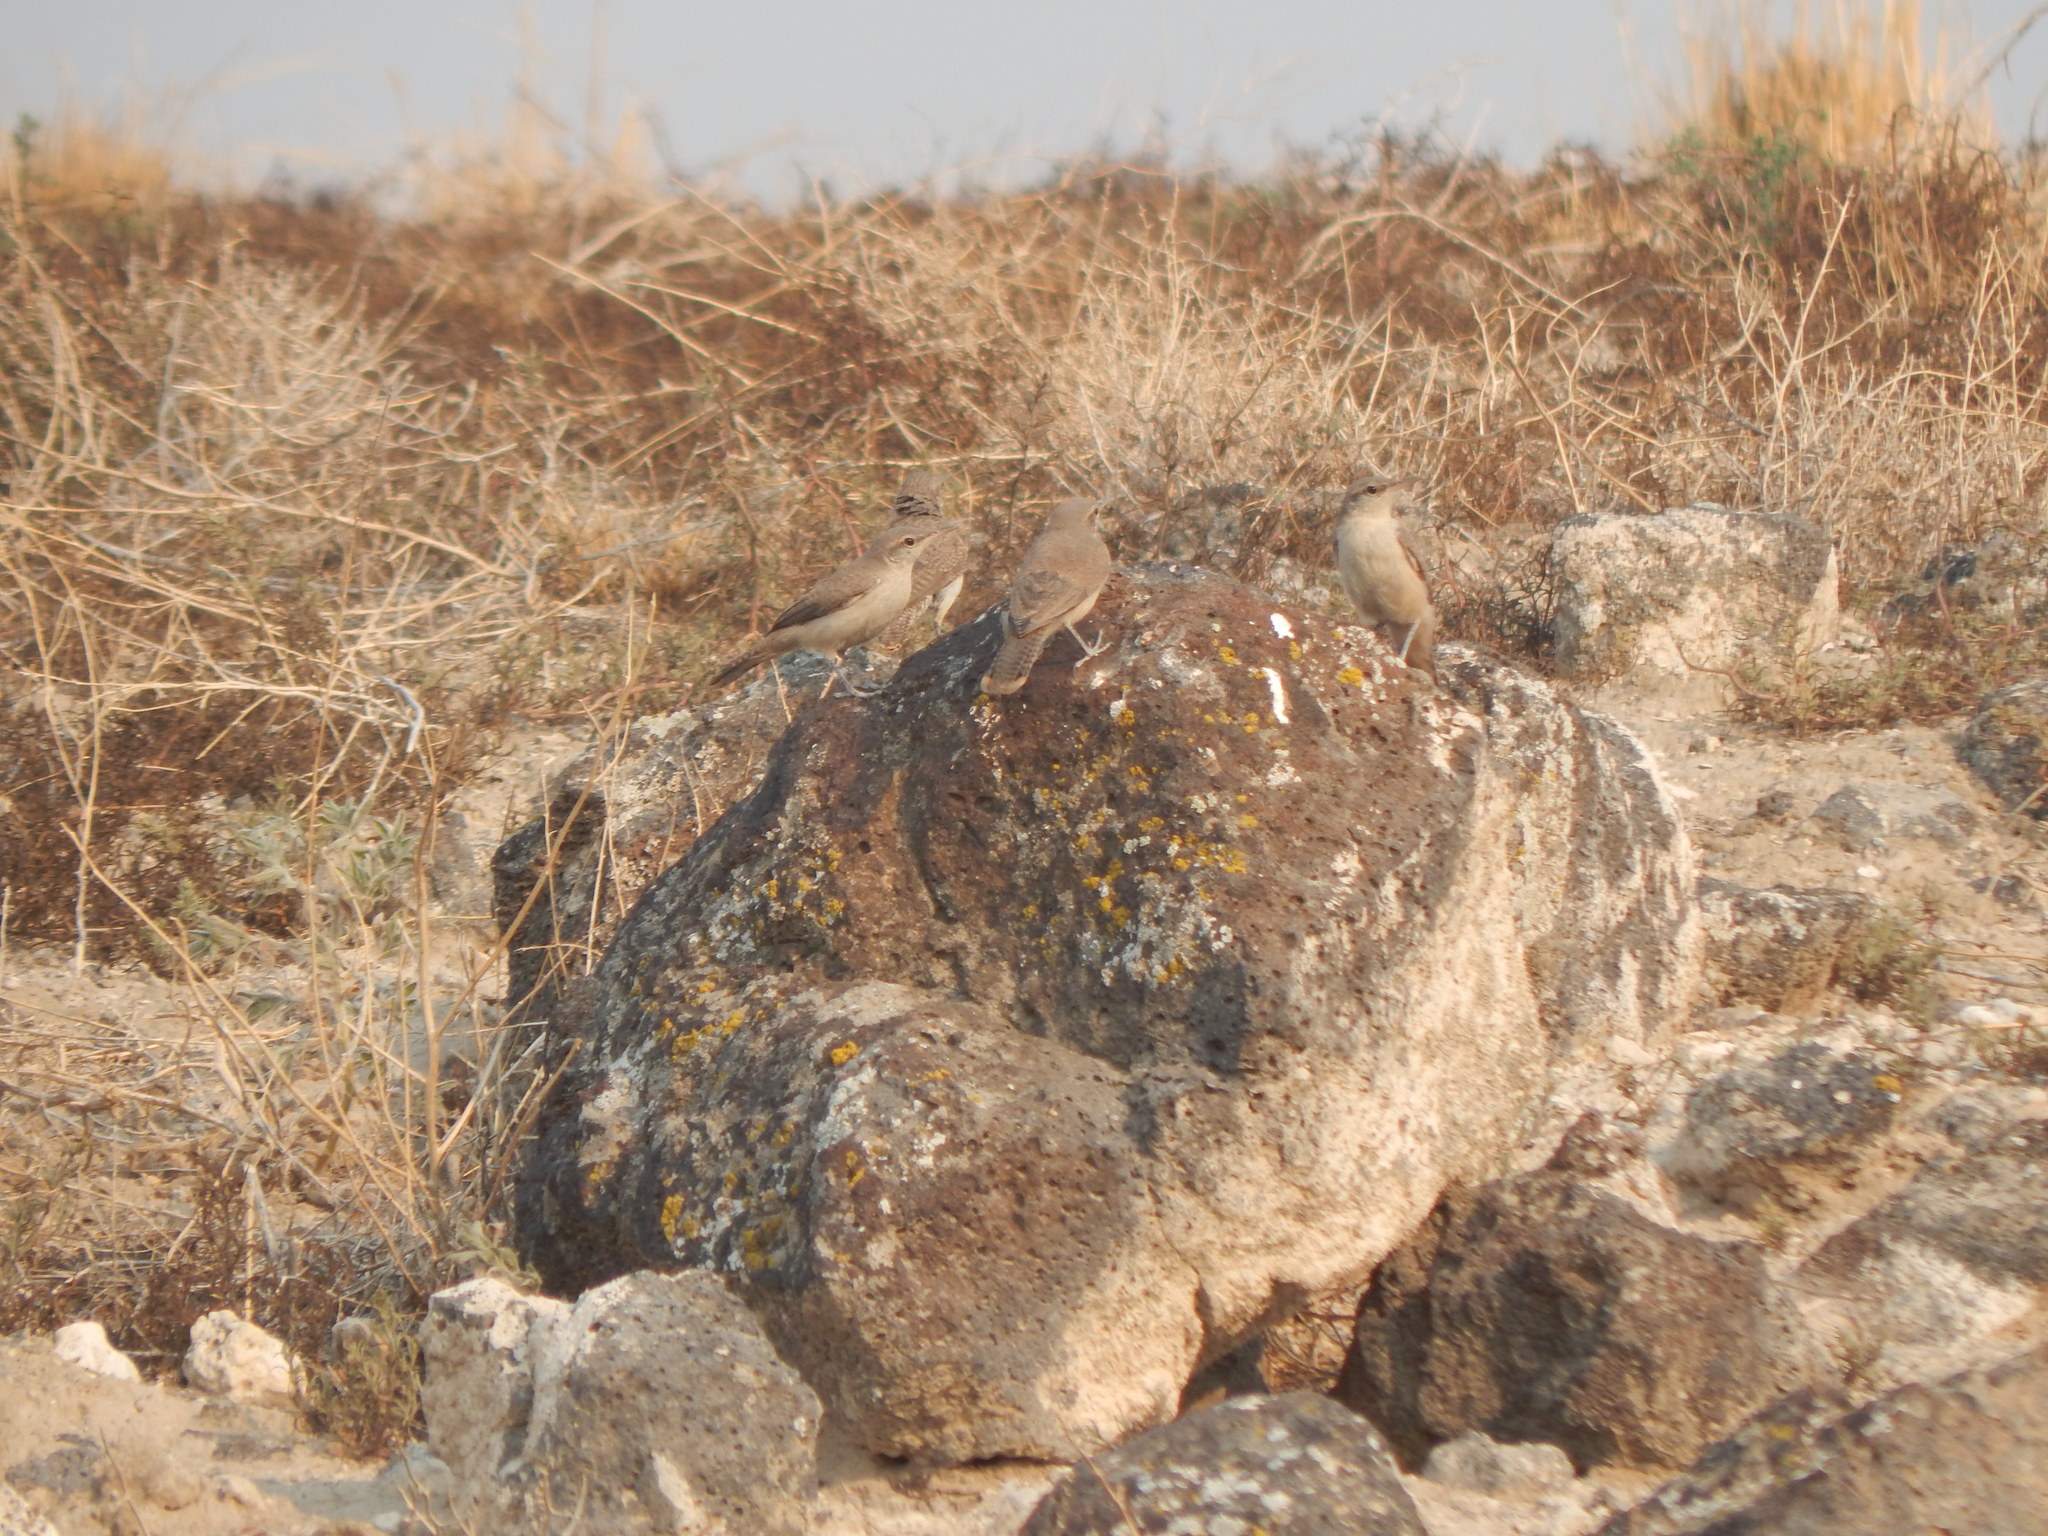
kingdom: Animalia
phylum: Chordata
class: Aves
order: Passeriformes
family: Troglodytidae
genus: Salpinctes
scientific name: Salpinctes obsoletus
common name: Rock wren
